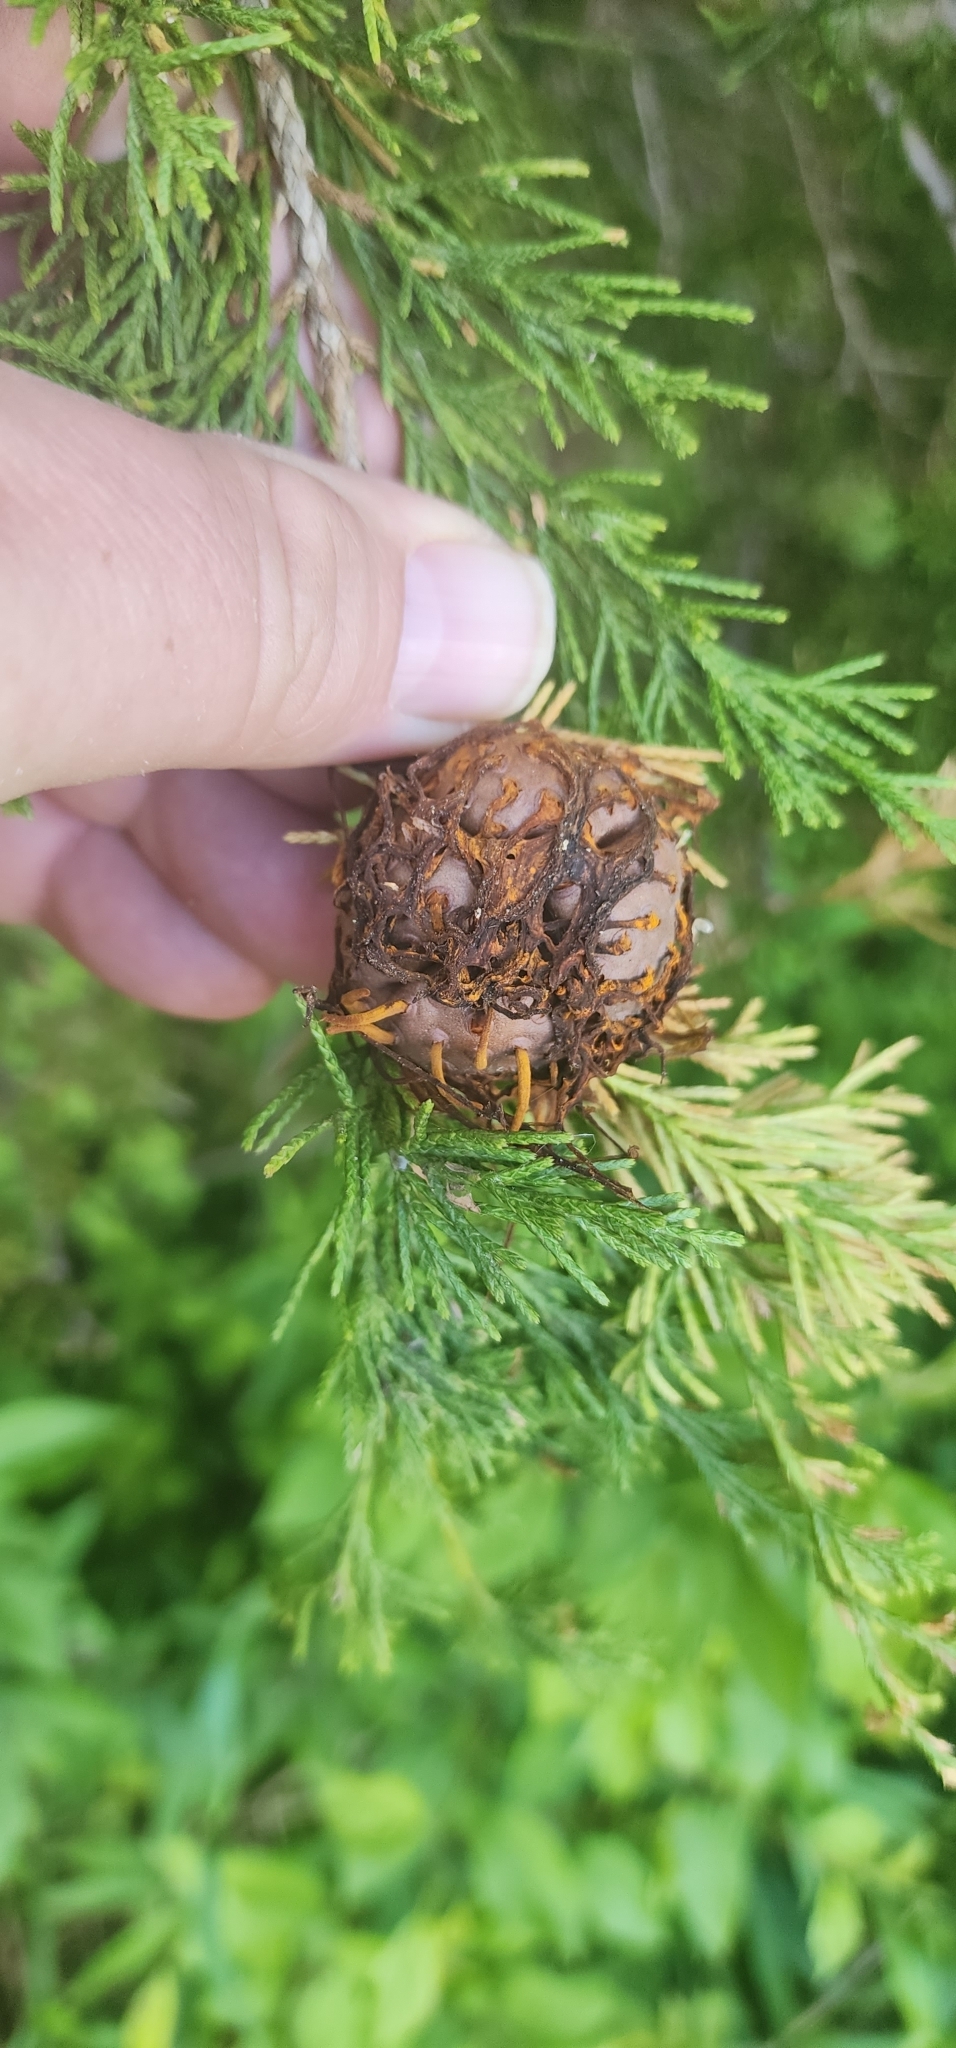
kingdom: Fungi
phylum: Basidiomycota
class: Pucciniomycetes
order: Pucciniales
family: Gymnosporangiaceae
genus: Gymnosporangium
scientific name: Gymnosporangium juniperi-virginianae
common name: Juniper-apple rust
